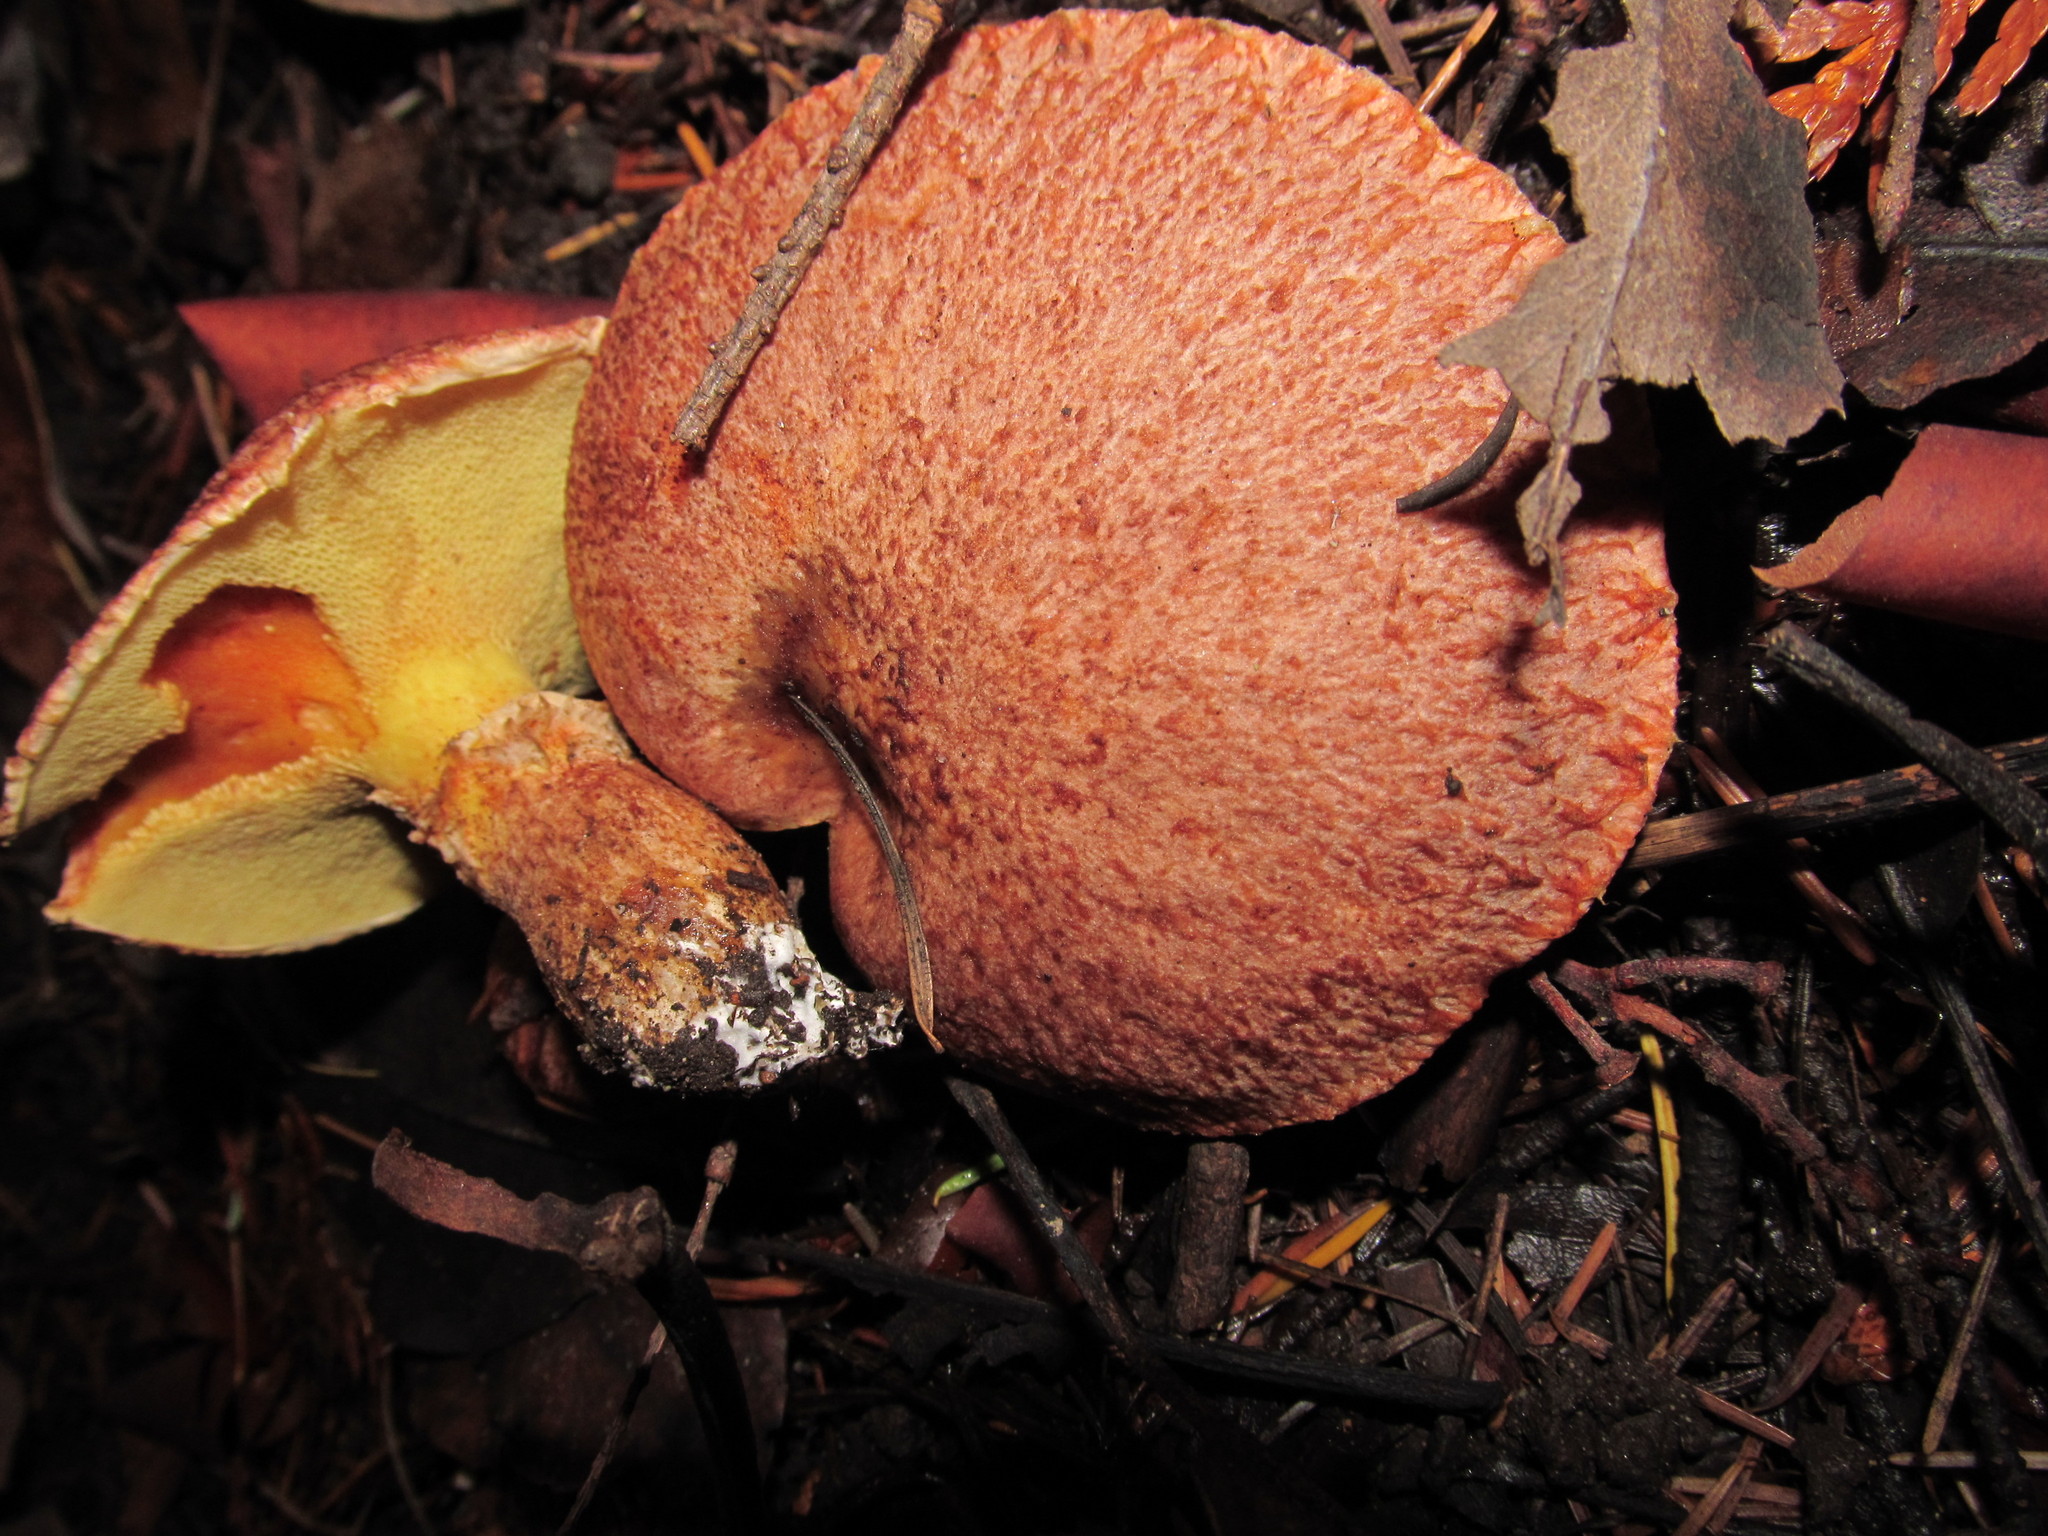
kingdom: Fungi
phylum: Basidiomycota
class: Agaricomycetes
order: Boletales
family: Suillaceae
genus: Suillus
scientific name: Suillus lakei
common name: Western painted suillus
